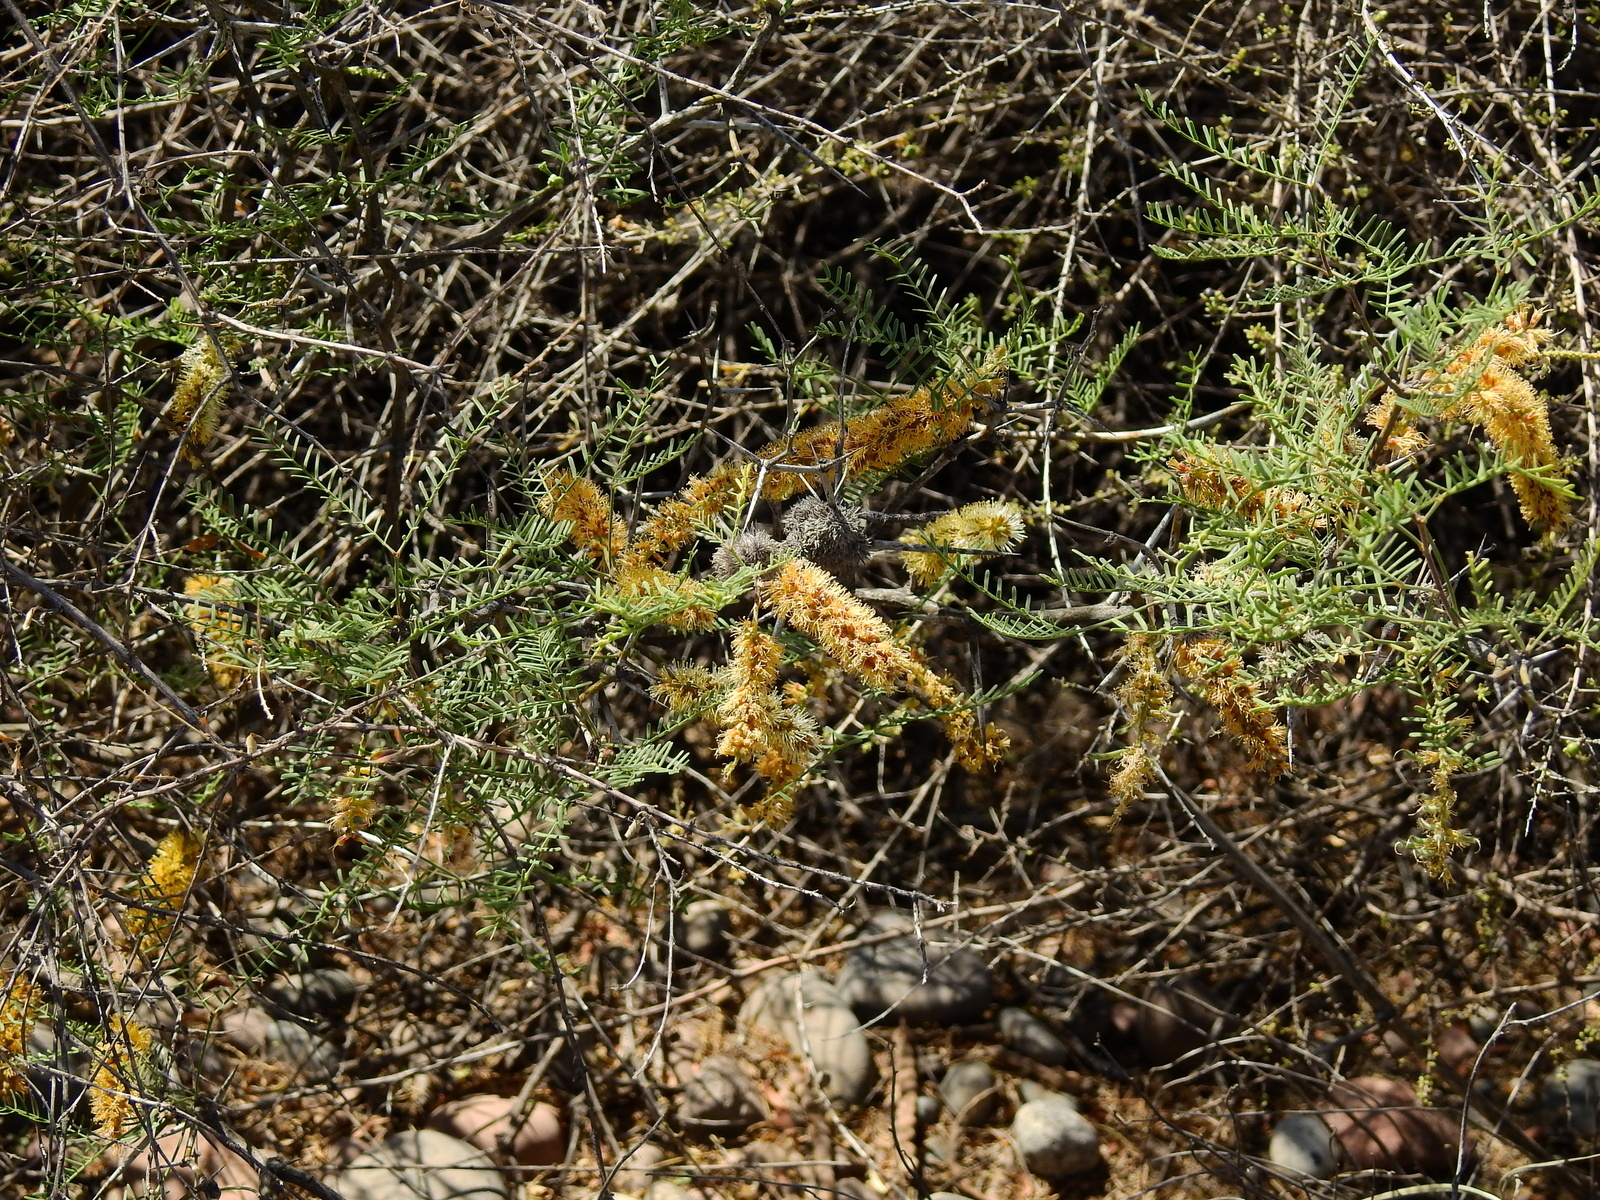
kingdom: Plantae
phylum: Tracheophyta
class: Magnoliopsida
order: Fabales
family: Fabaceae
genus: Prosopis
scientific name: Prosopis flexuosa
